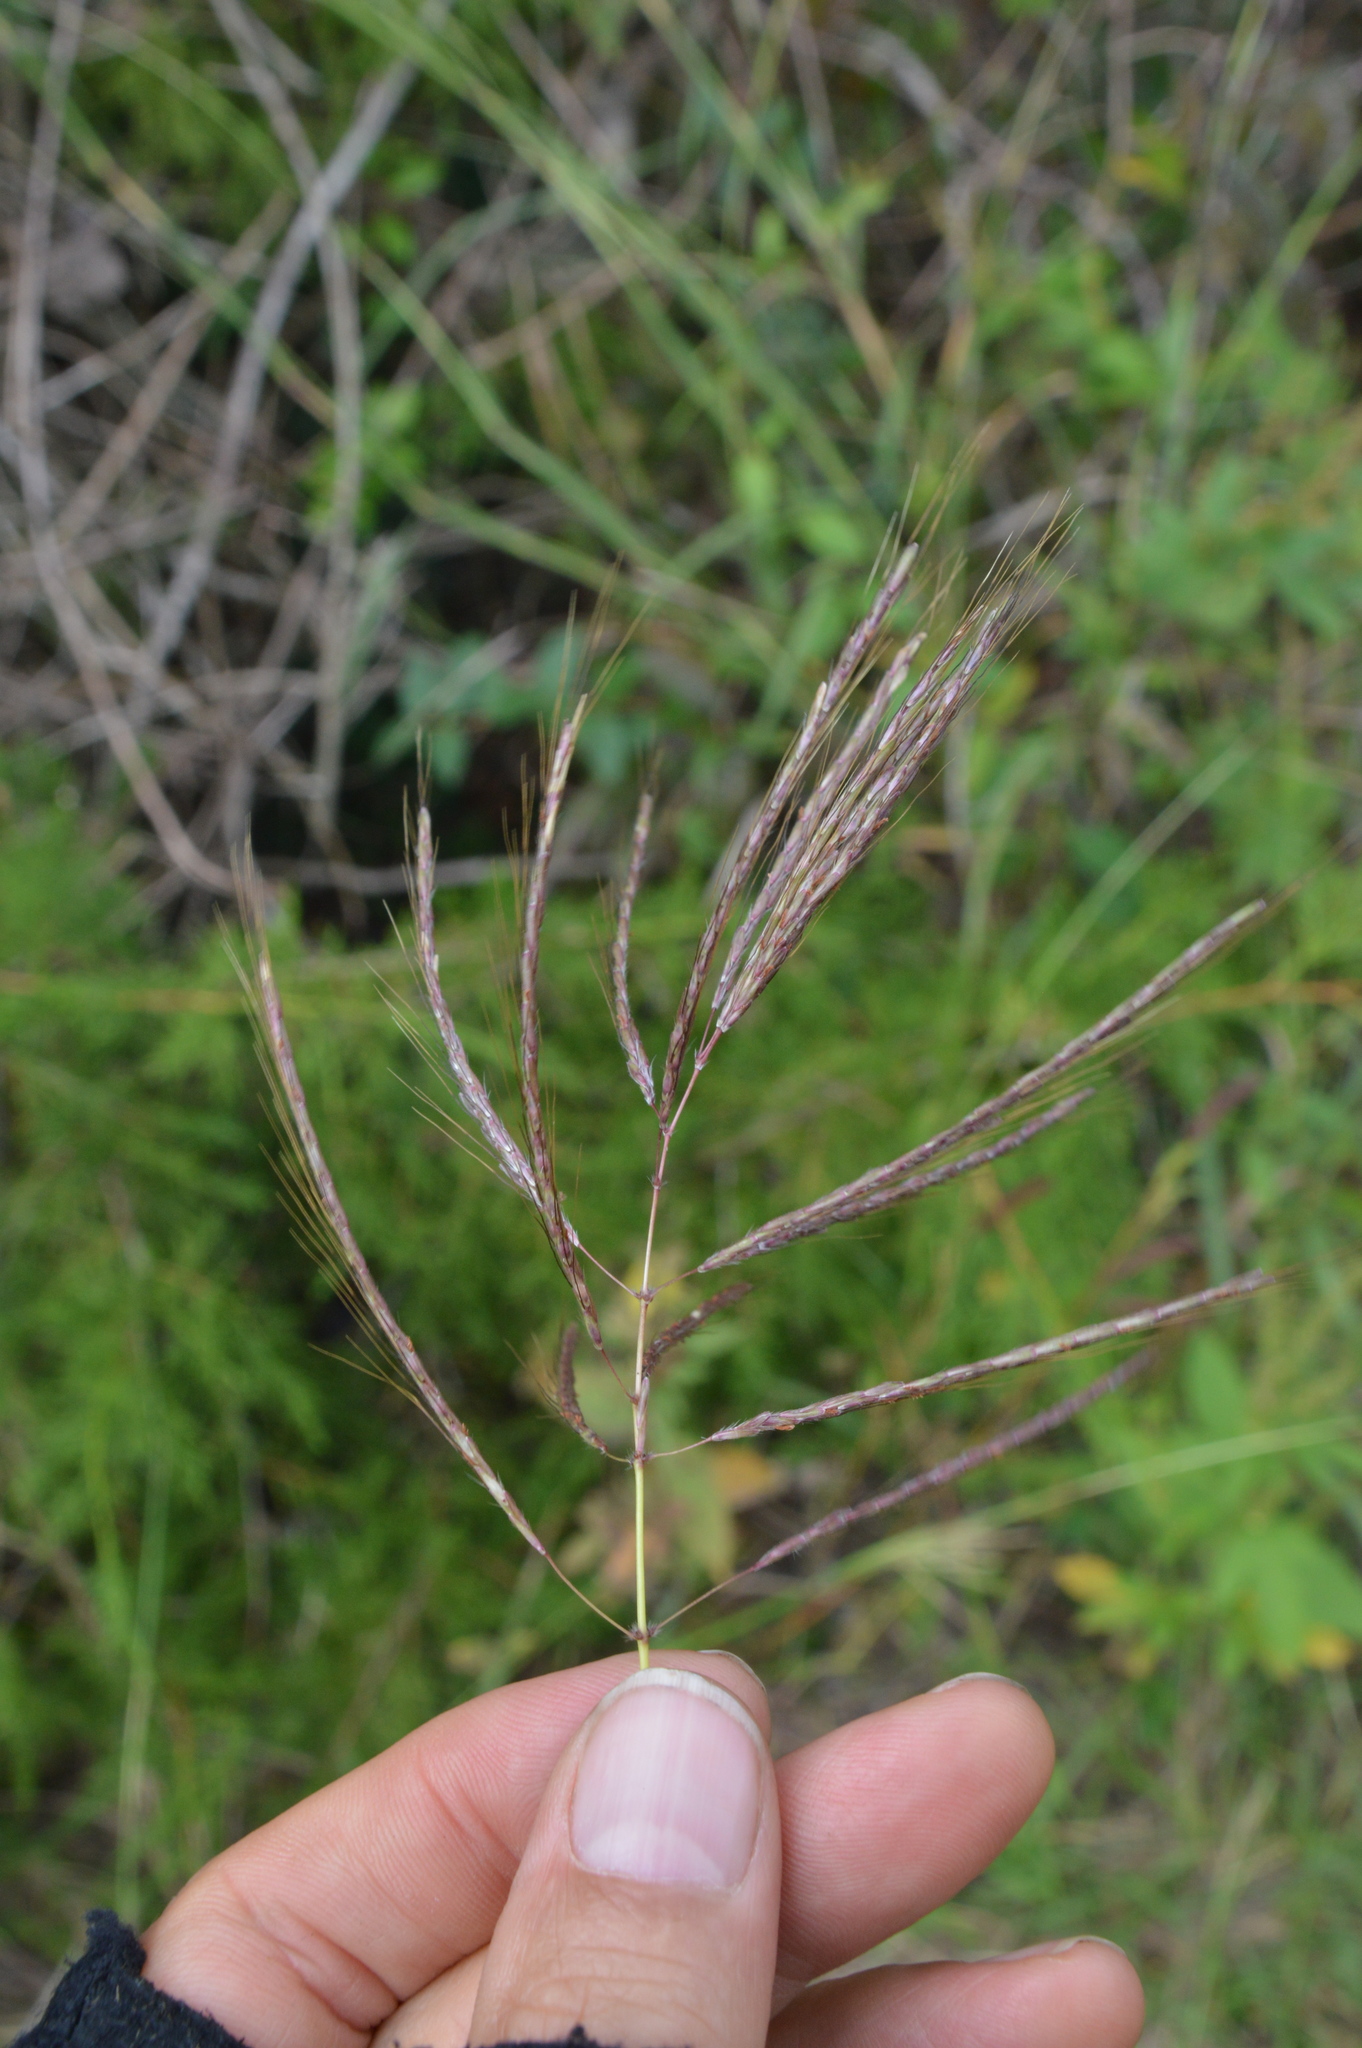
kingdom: Plantae
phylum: Tracheophyta
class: Liliopsida
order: Poales
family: Poaceae
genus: Bothriochloa
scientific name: Bothriochloa bladhii
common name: Caucasian bluestem
